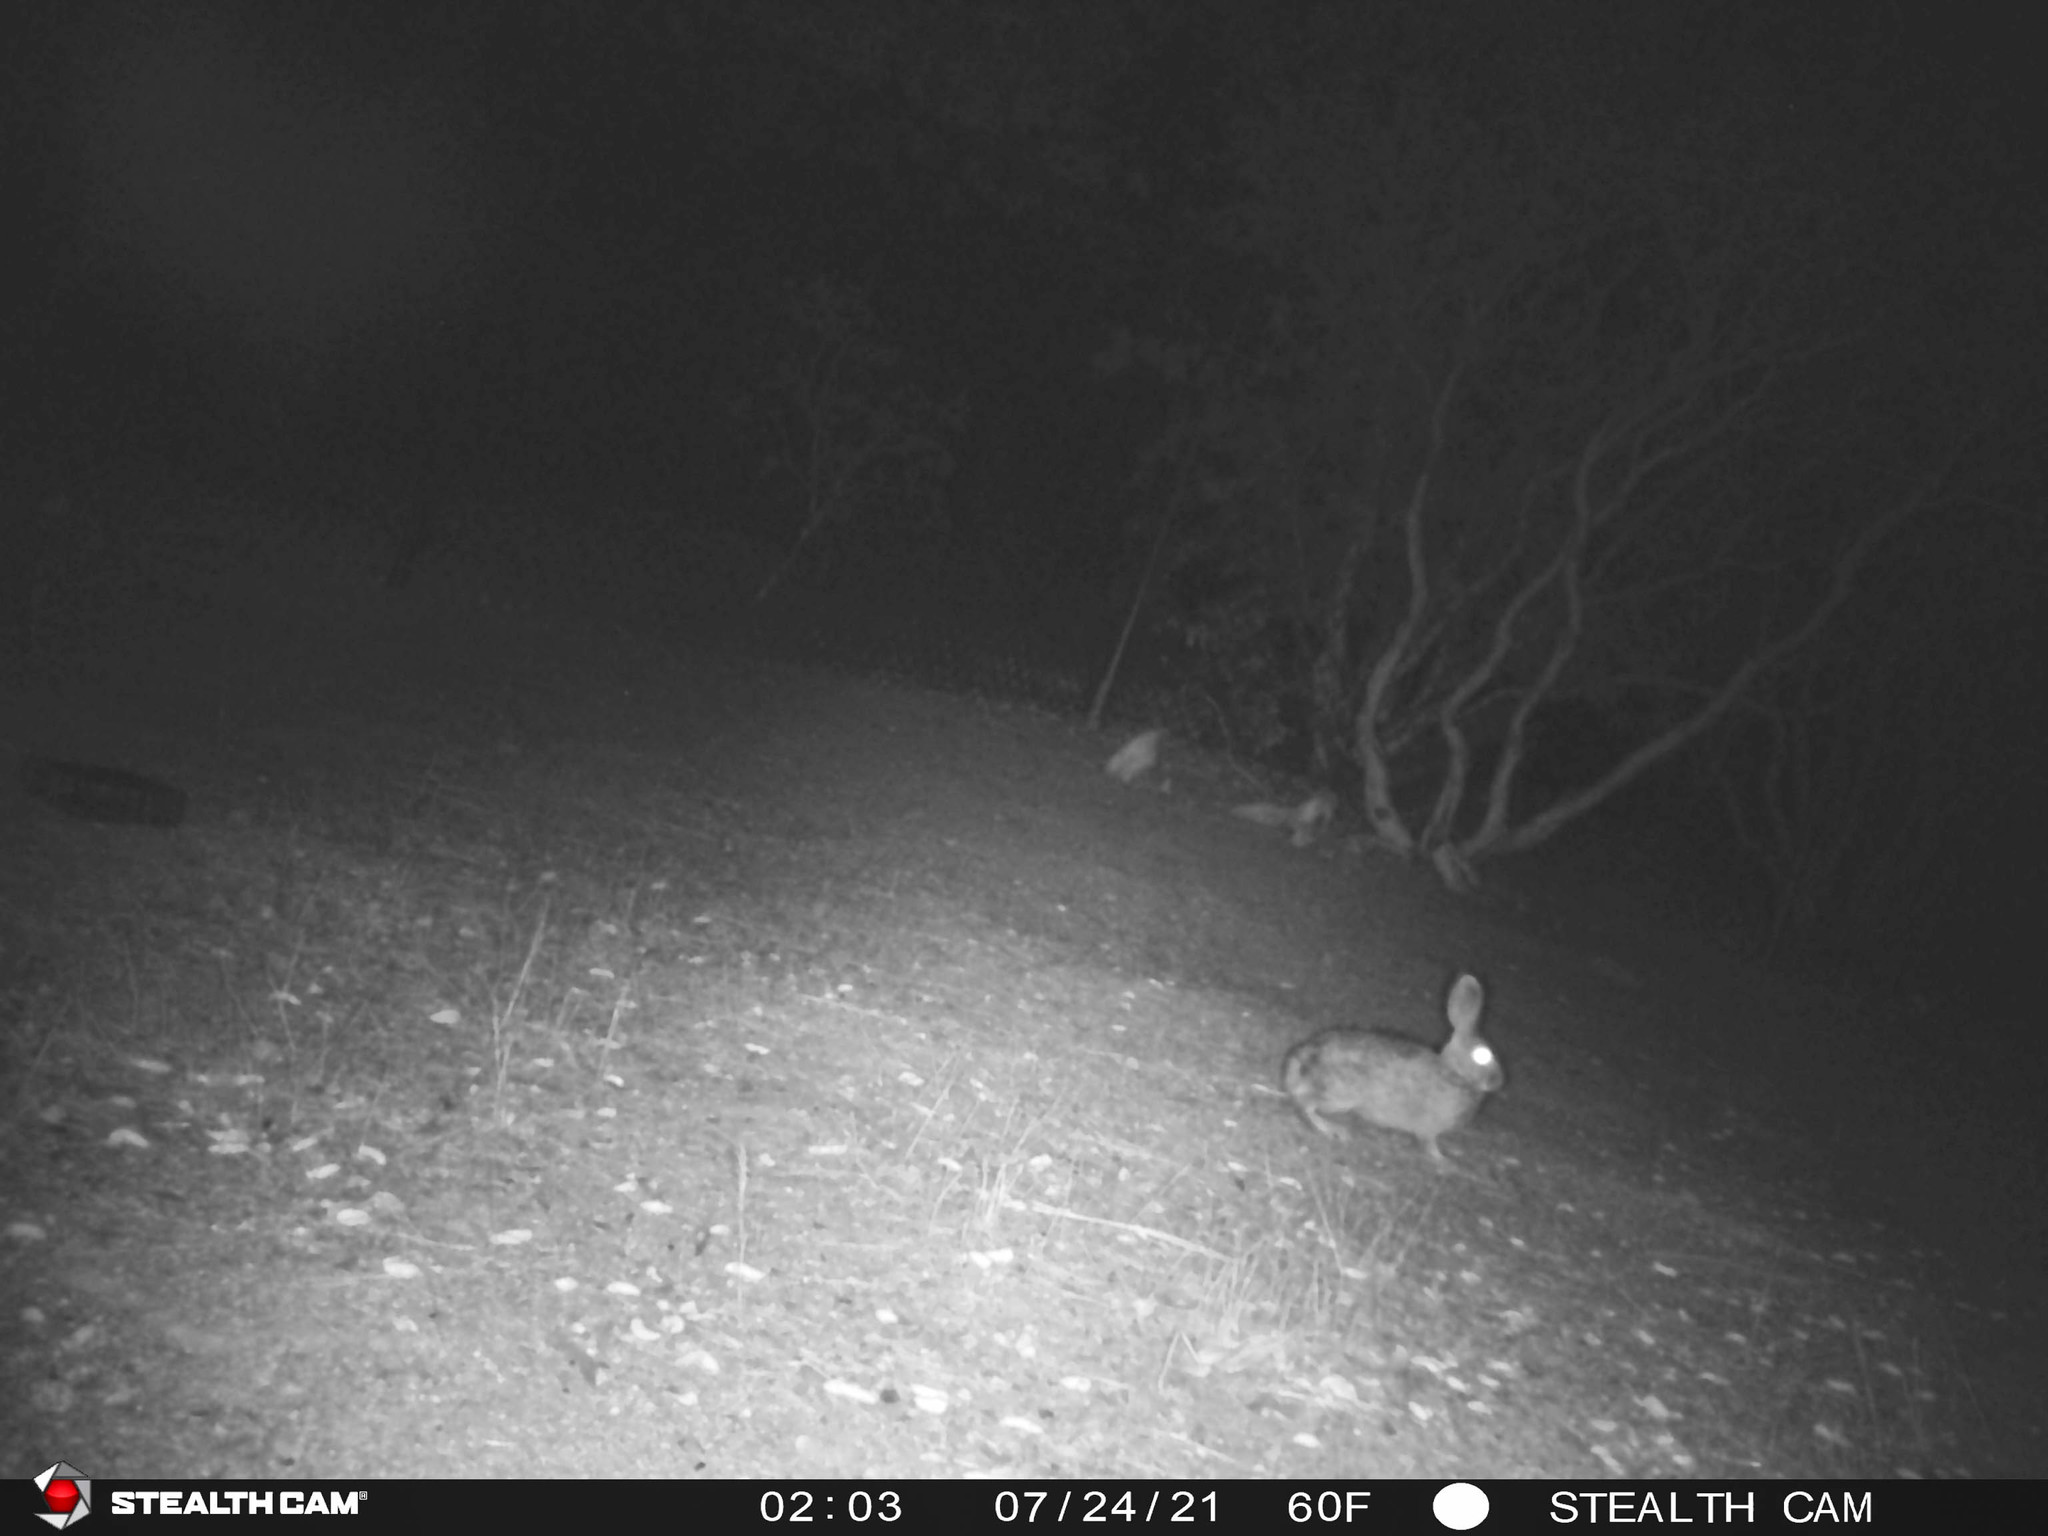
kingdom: Animalia
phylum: Chordata
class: Mammalia
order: Lagomorpha
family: Leporidae
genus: Sylvilagus
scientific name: Sylvilagus audubonii
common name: Desert cottontail
